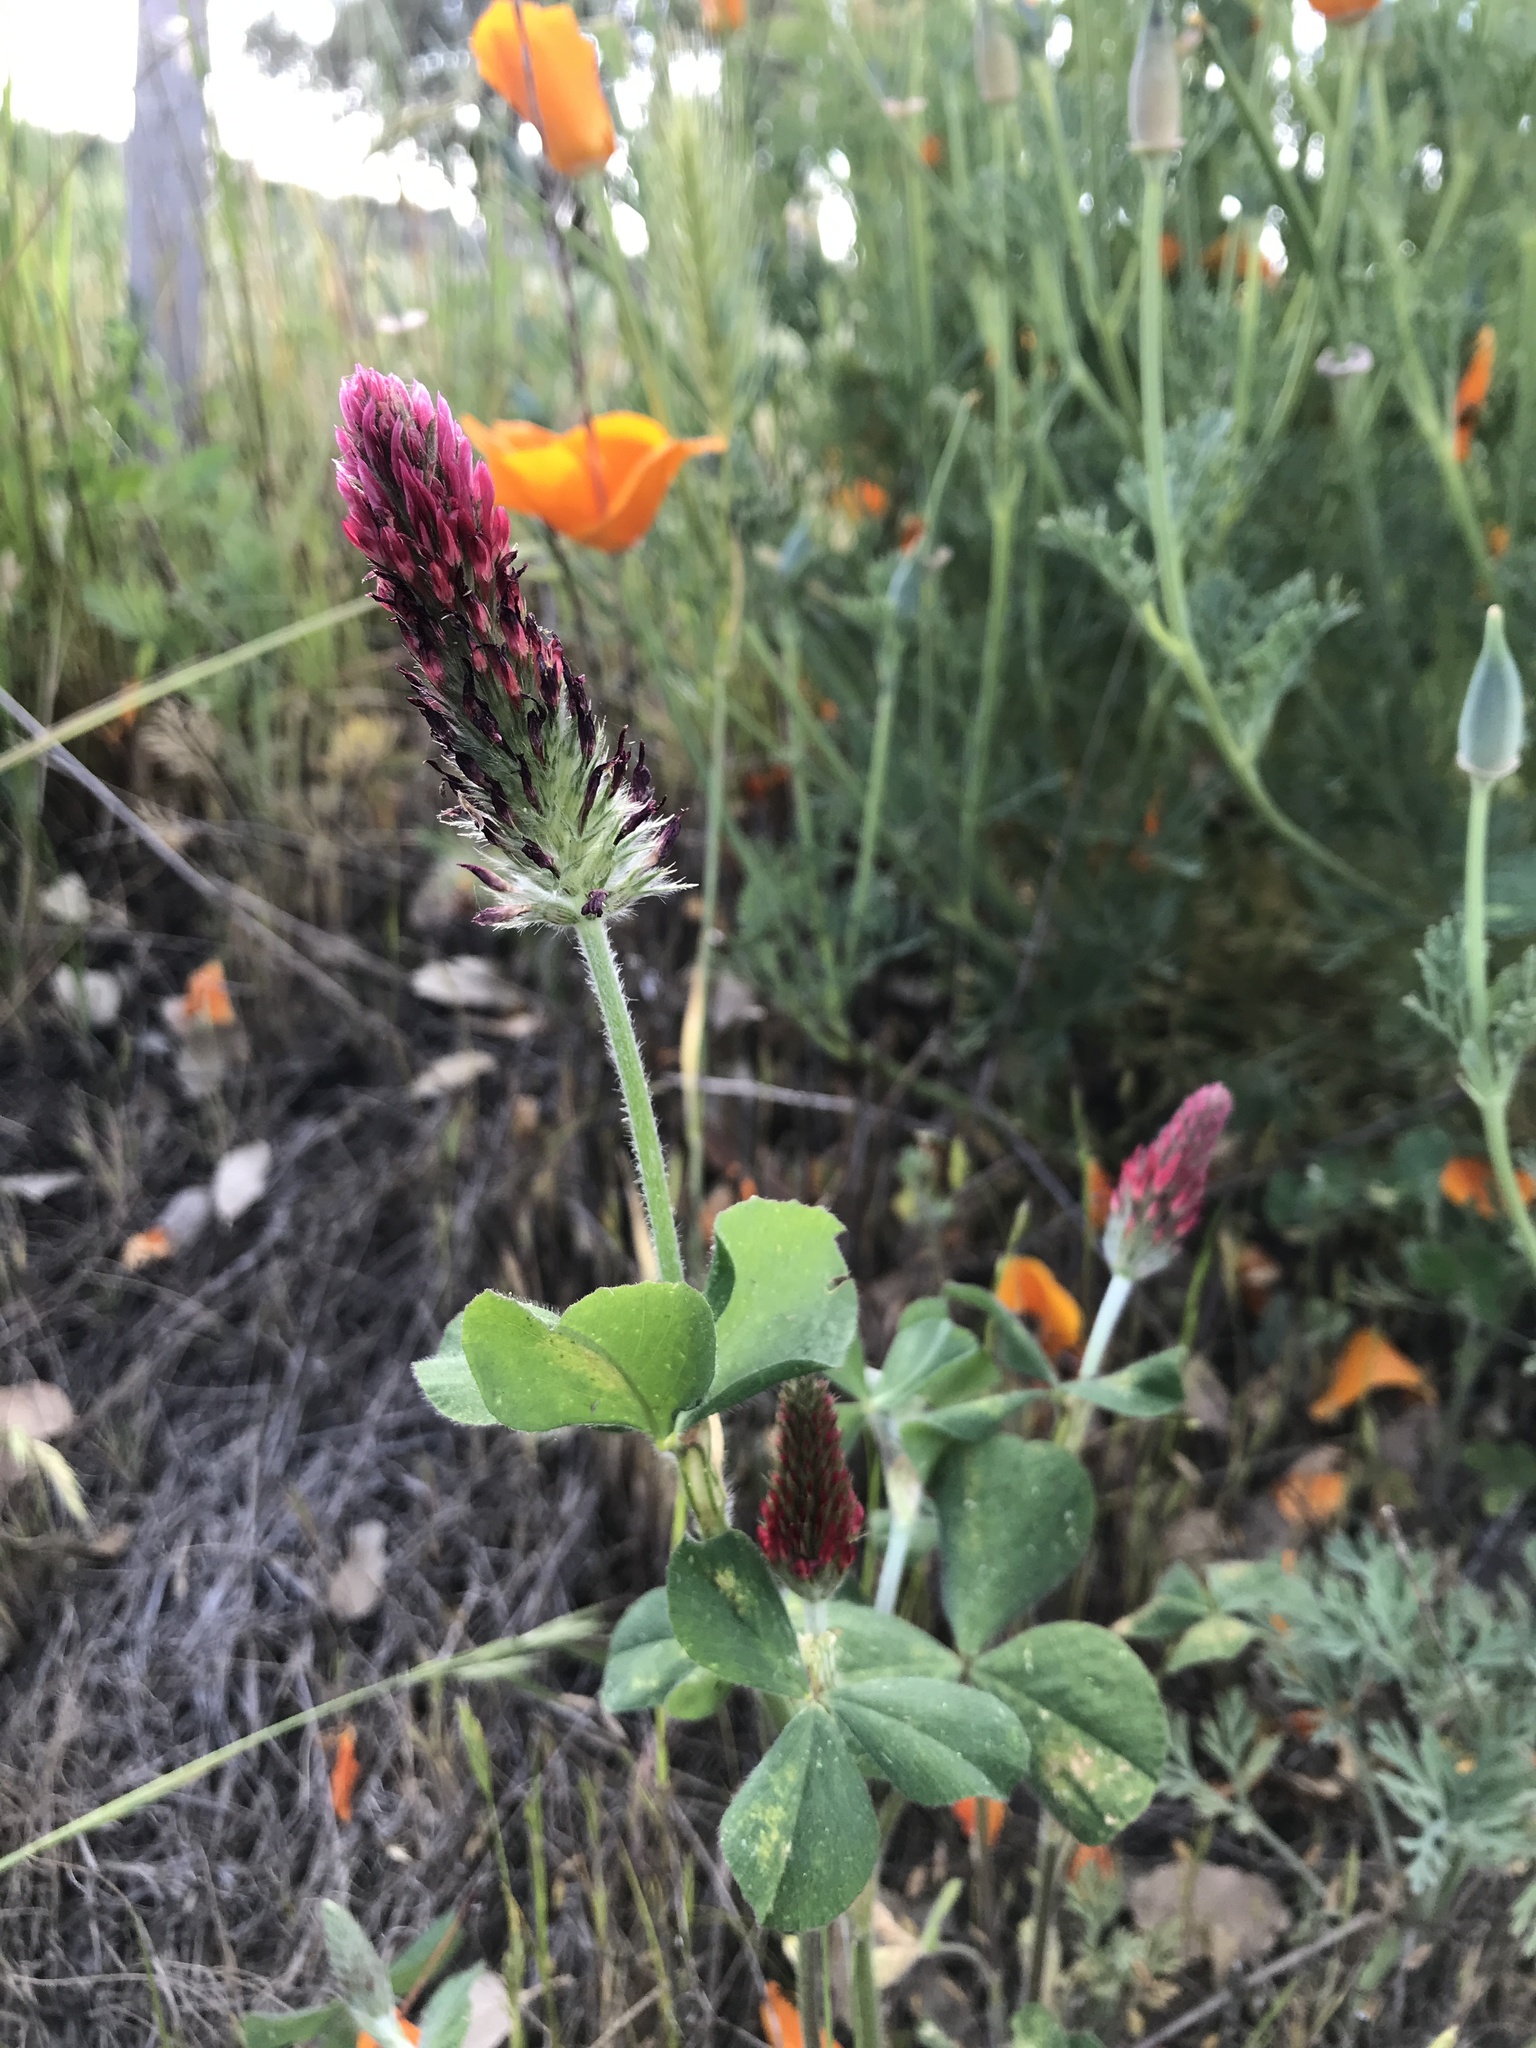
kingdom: Plantae
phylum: Tracheophyta
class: Magnoliopsida
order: Fabales
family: Fabaceae
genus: Trifolium
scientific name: Trifolium incarnatum
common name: Crimson clover
